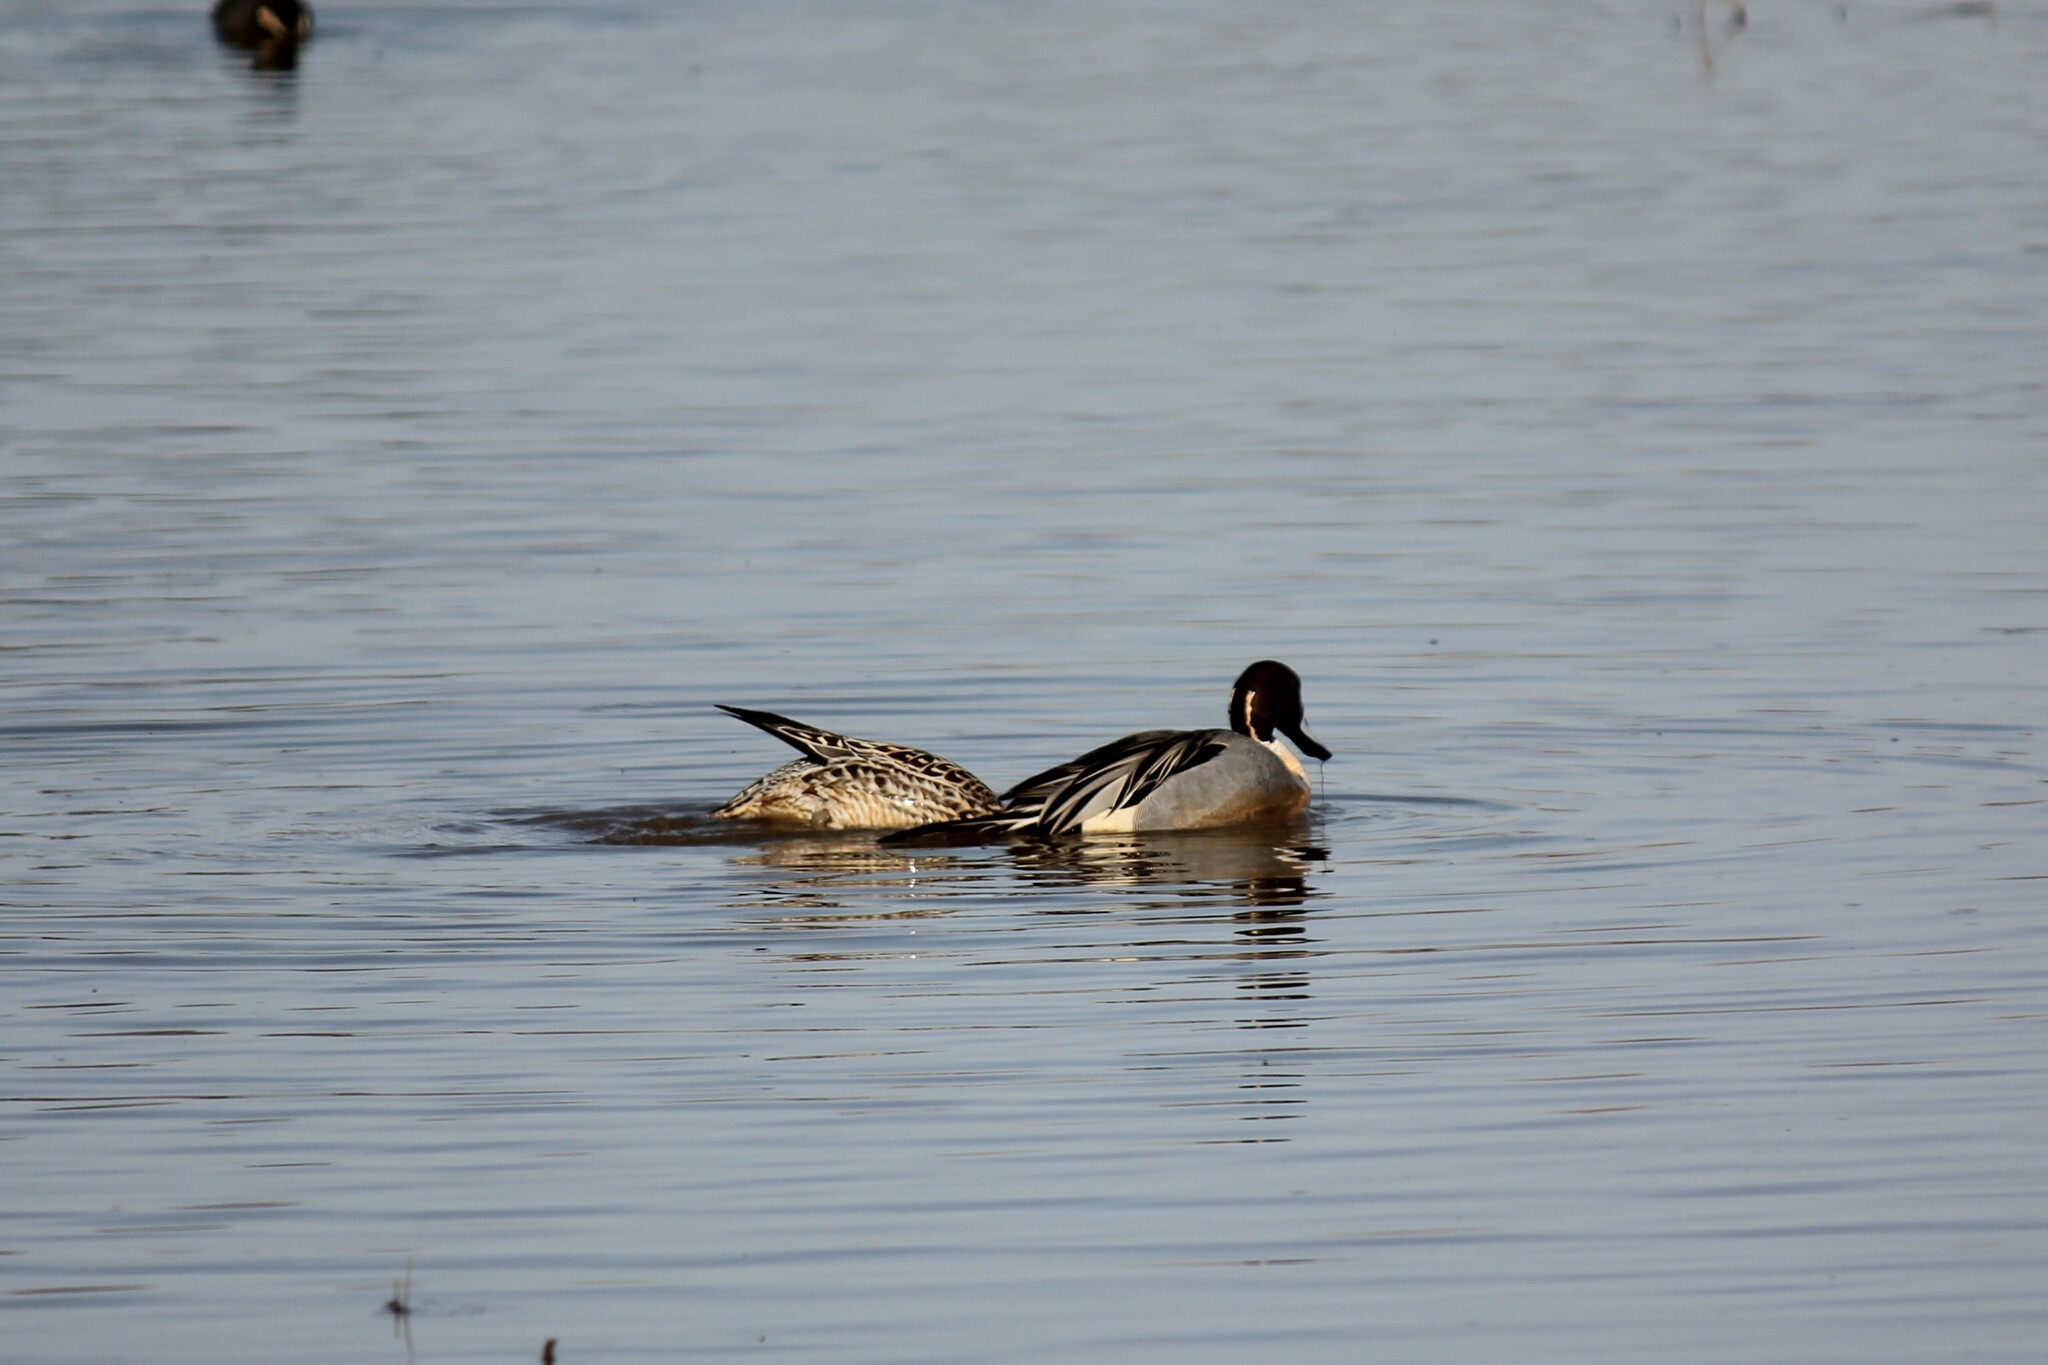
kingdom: Animalia
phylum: Chordata
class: Aves
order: Anseriformes
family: Anatidae
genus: Anas
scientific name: Anas acuta
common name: Northern pintail
